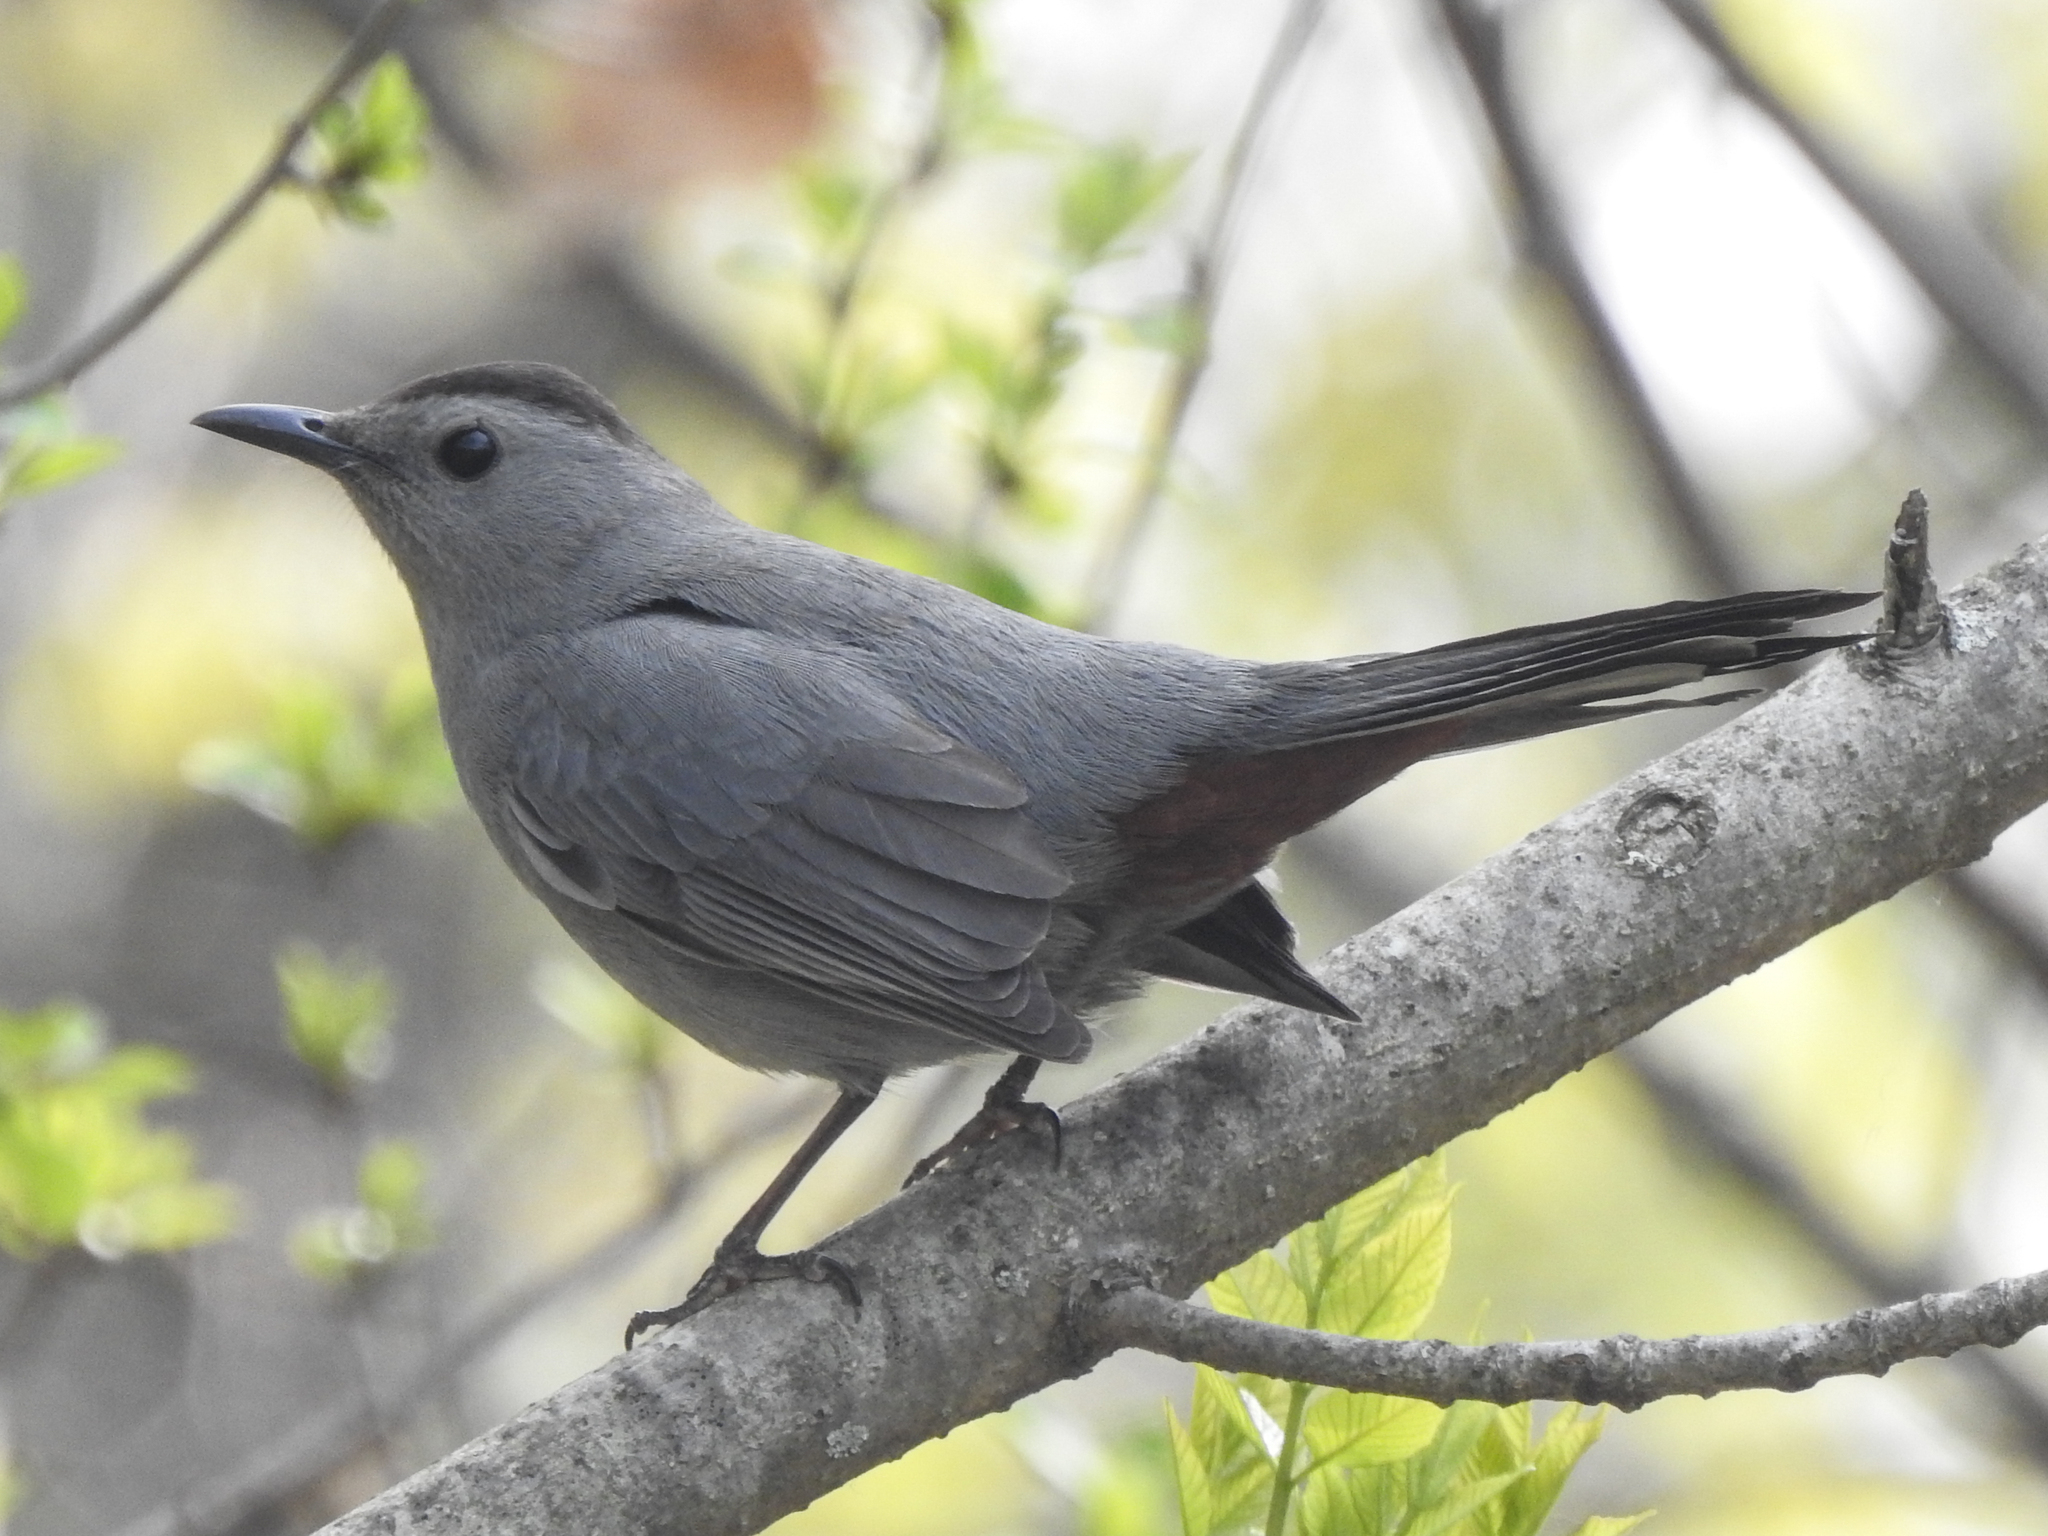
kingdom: Animalia
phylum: Chordata
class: Aves
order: Passeriformes
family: Mimidae
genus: Dumetella
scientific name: Dumetella carolinensis
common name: Gray catbird
